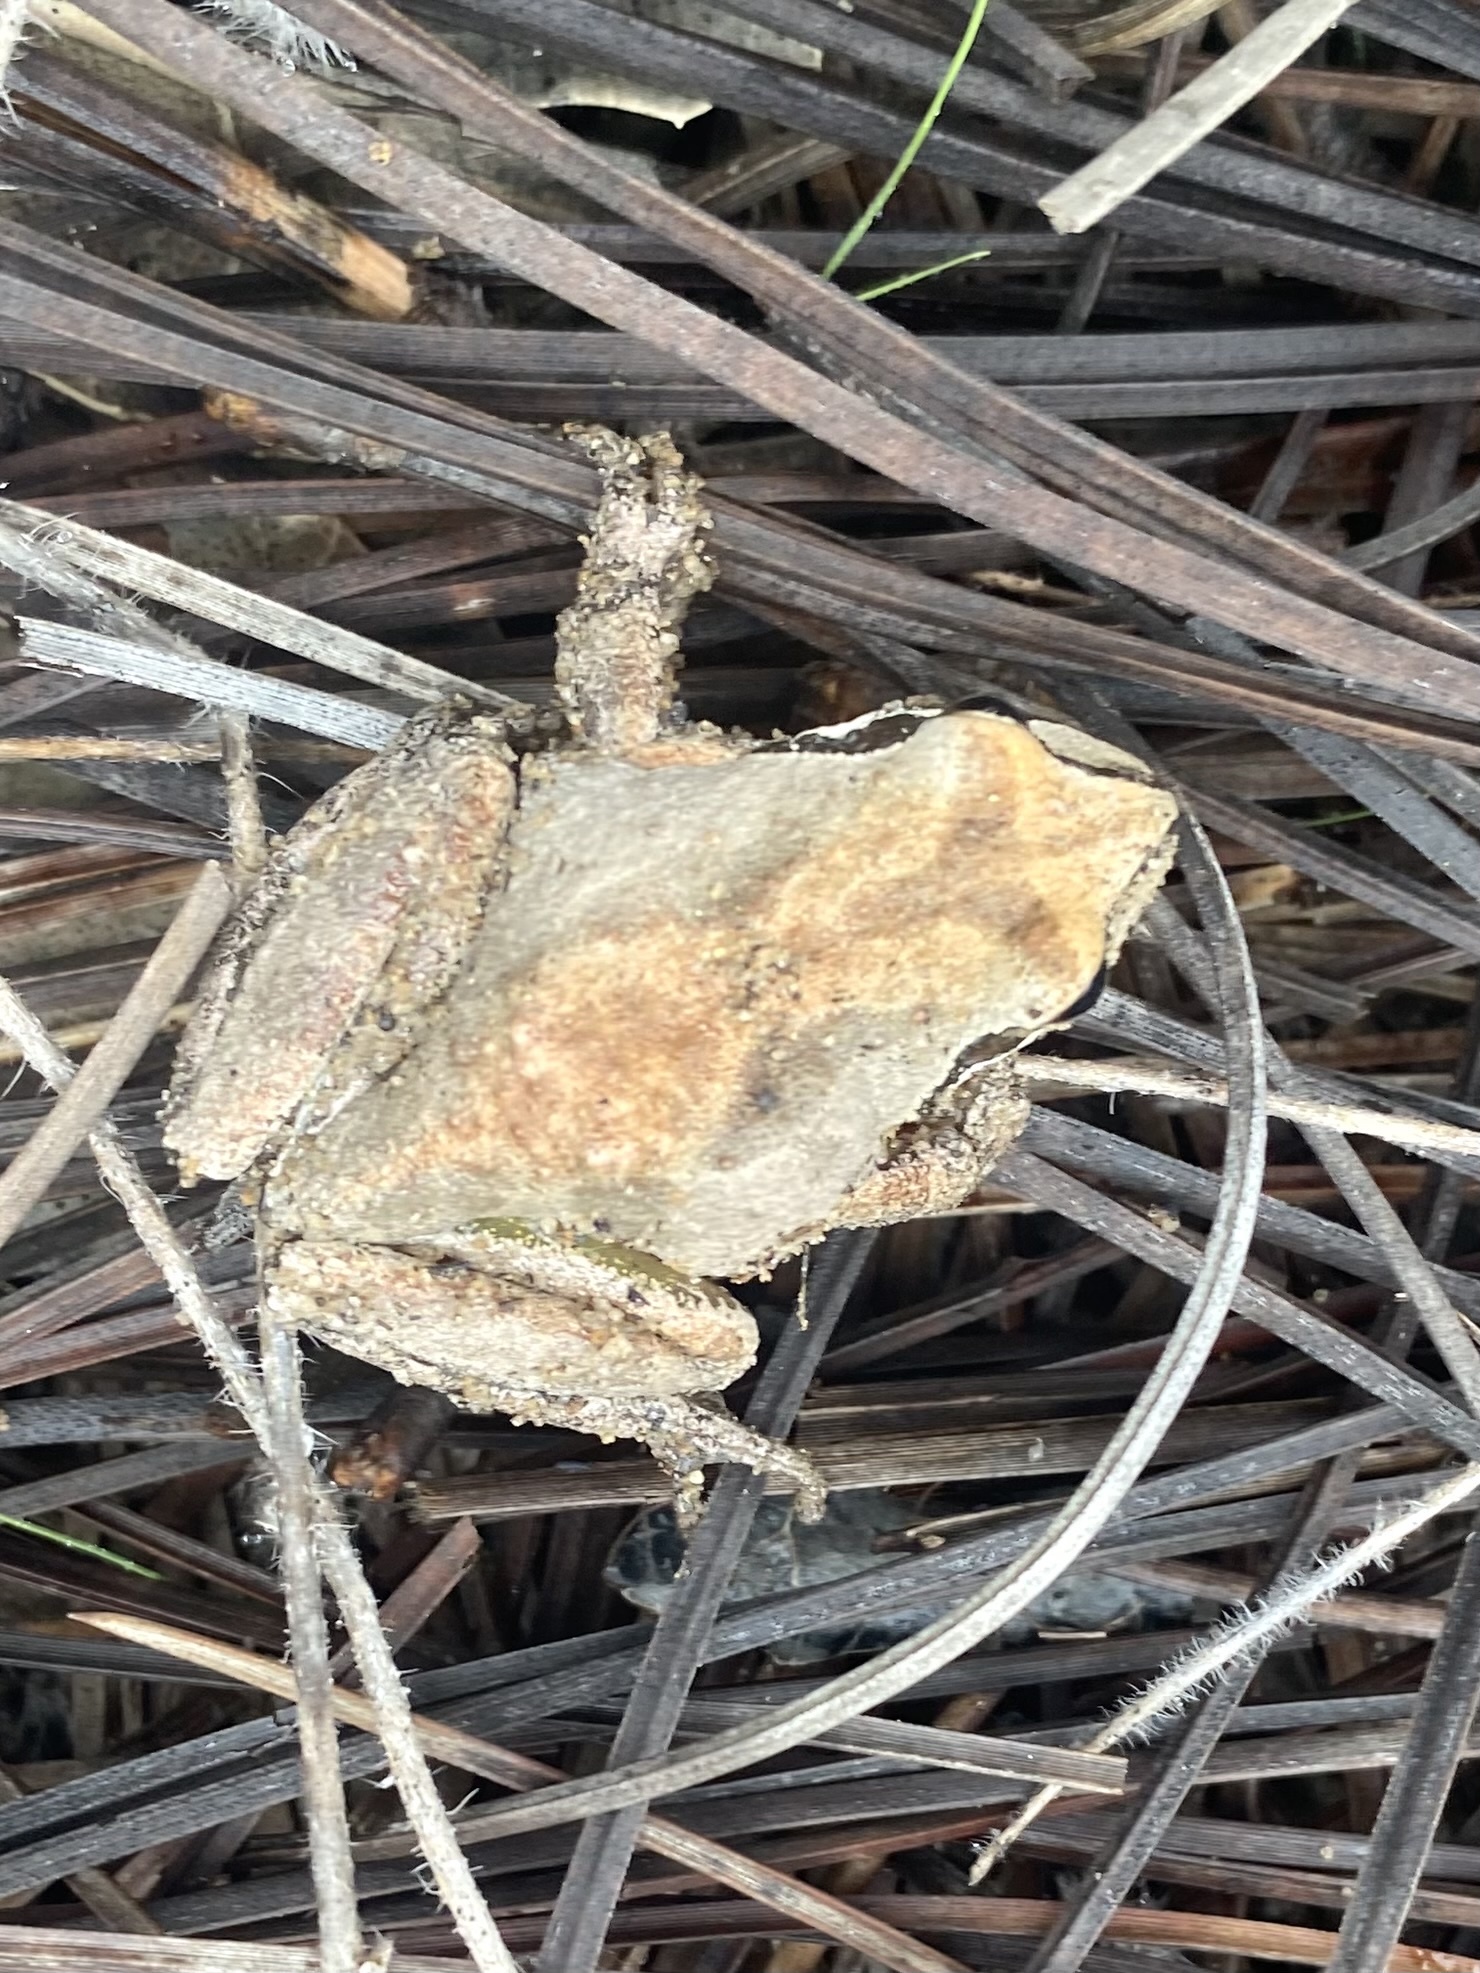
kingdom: Animalia
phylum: Chordata
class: Amphibia
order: Anura
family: Hylidae
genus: Pseudacris
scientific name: Pseudacris regilla
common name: Pacific chorus frog
